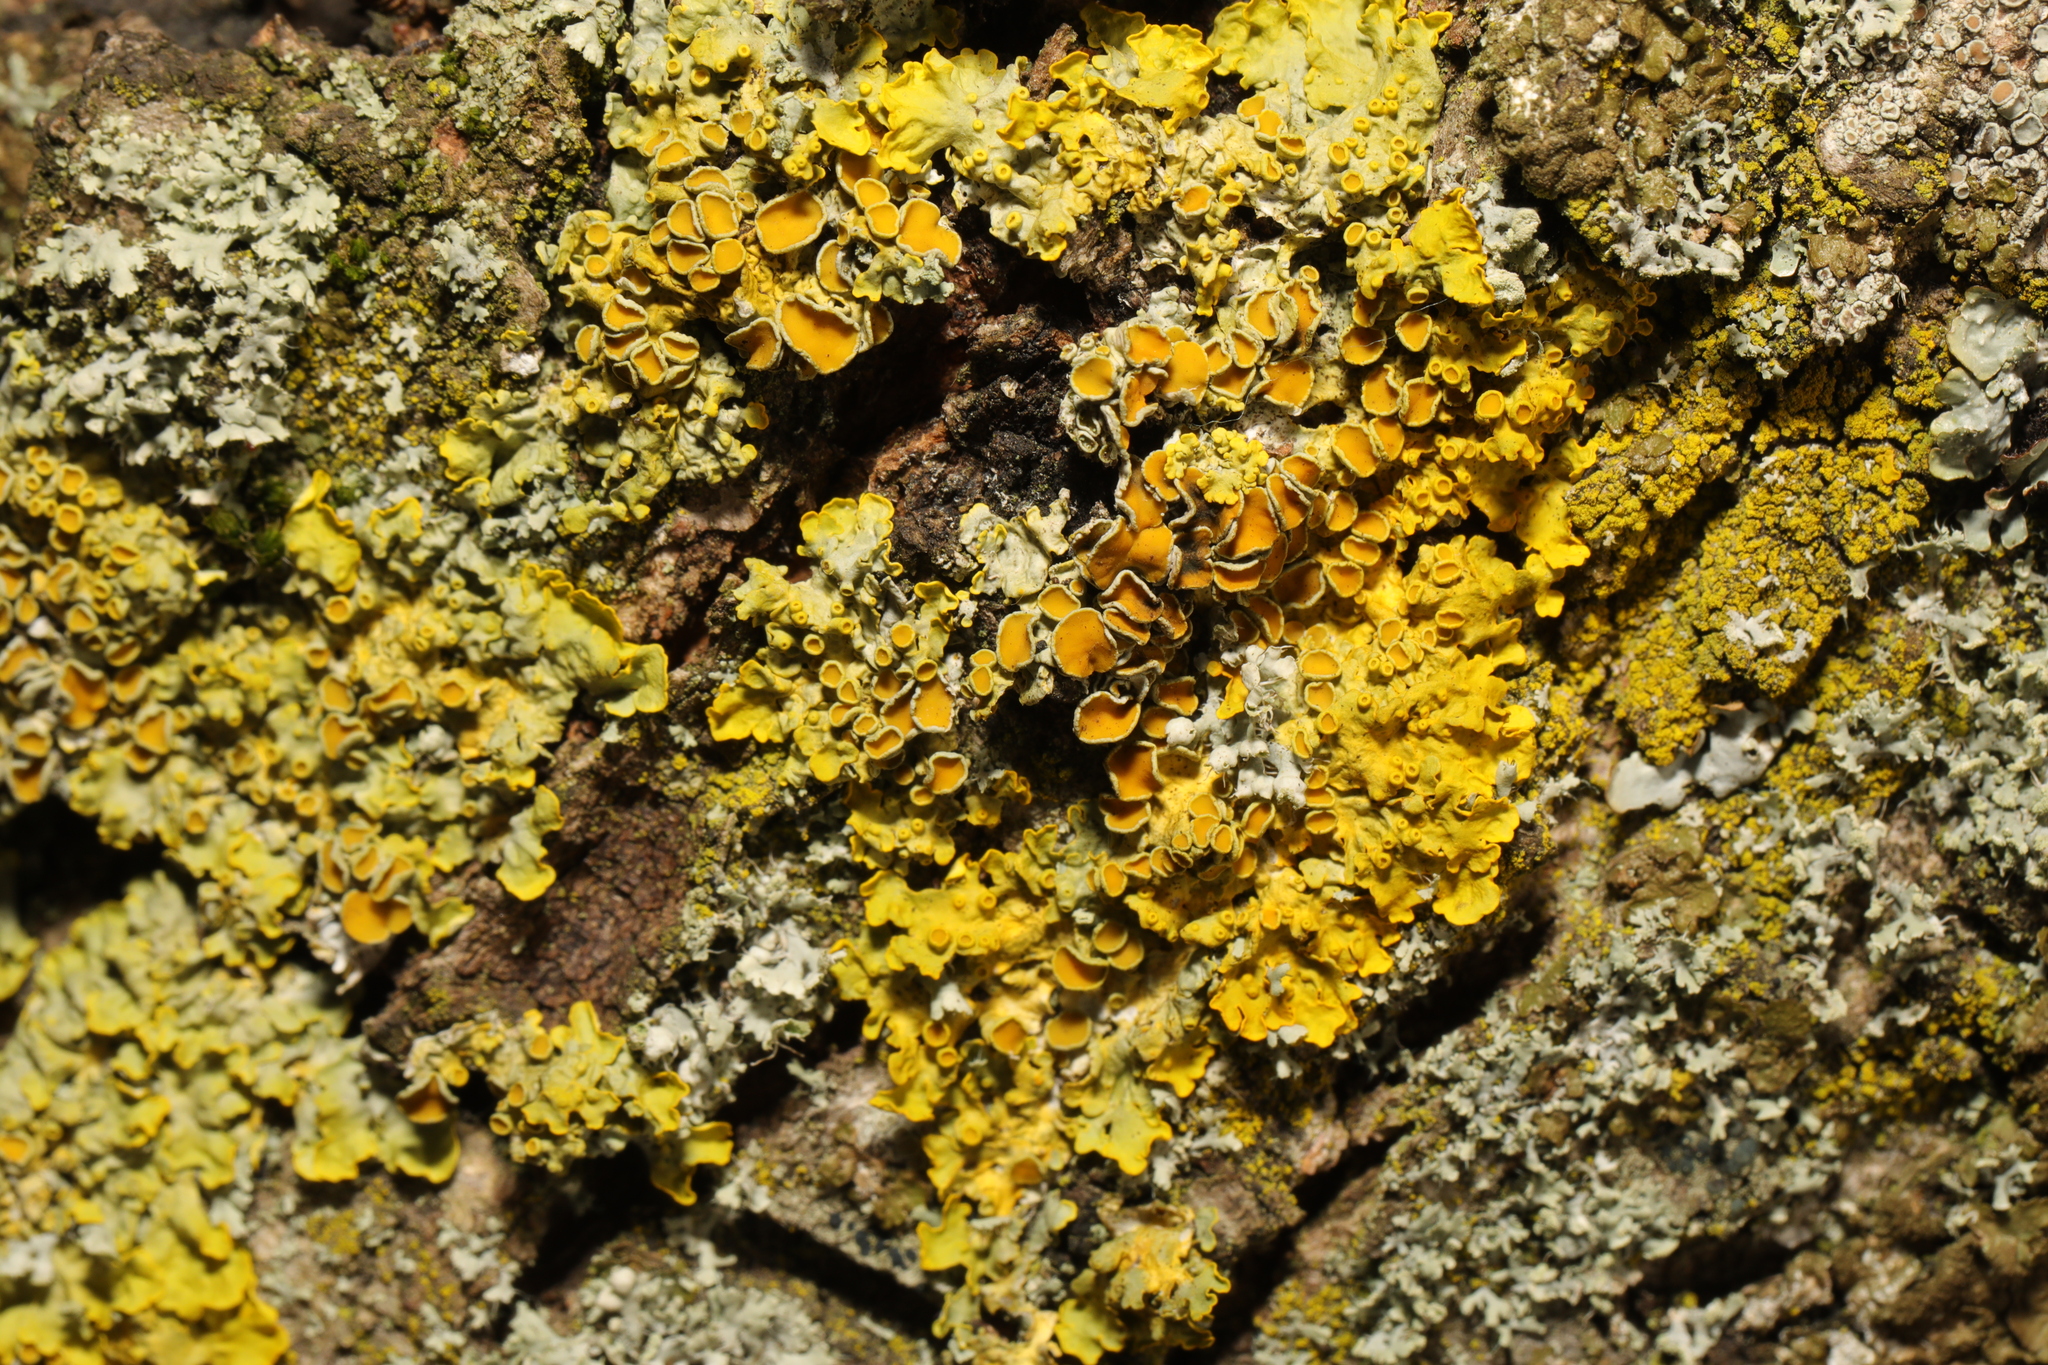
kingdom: Fungi
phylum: Ascomycota
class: Lecanoromycetes
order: Teloschistales
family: Teloschistaceae
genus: Xanthoria
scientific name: Xanthoria parietina
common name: Common orange lichen
